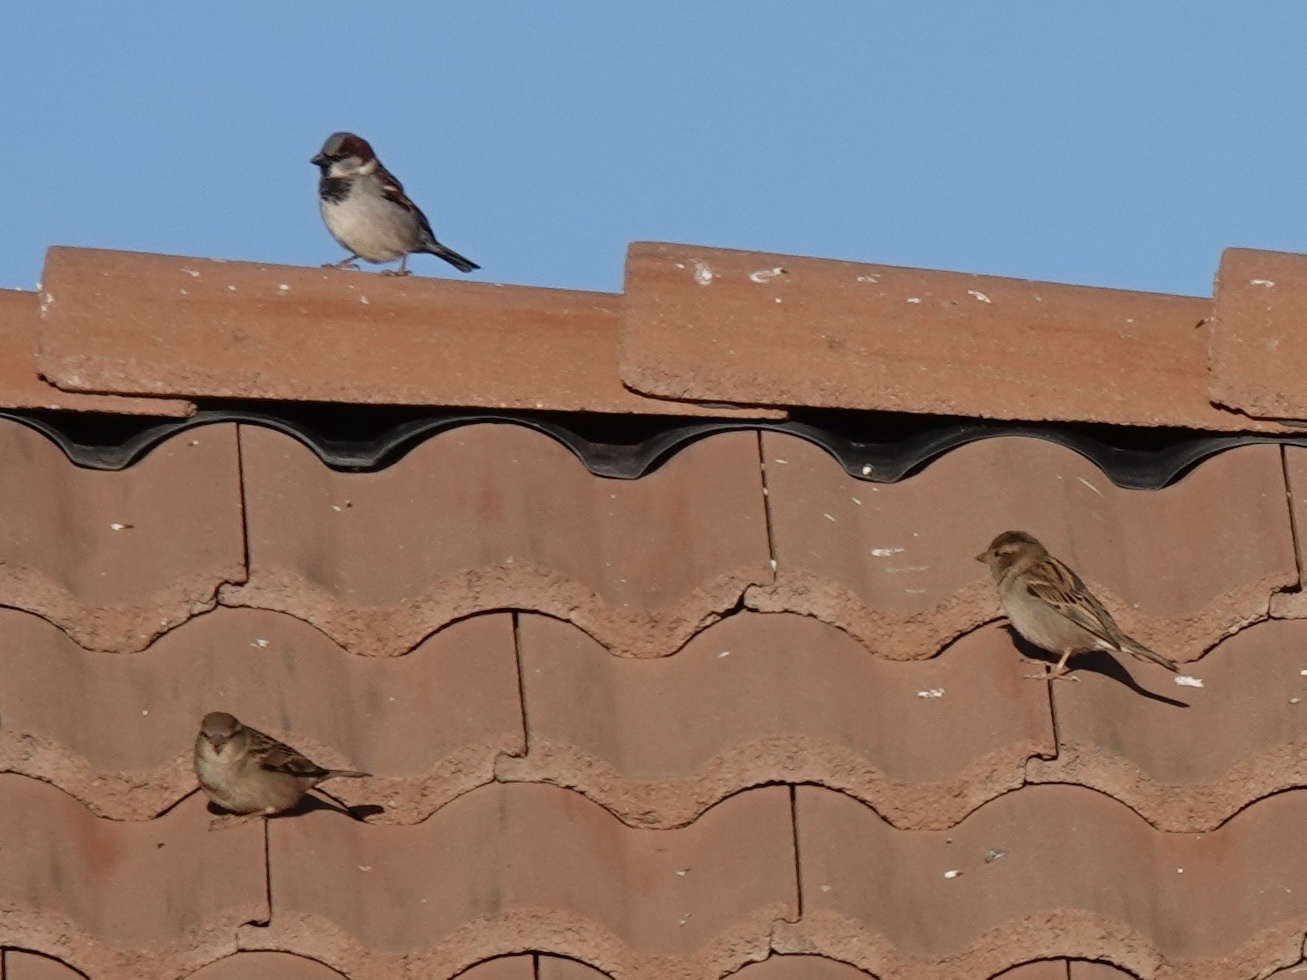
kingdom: Animalia
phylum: Chordata
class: Aves
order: Passeriformes
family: Passeridae
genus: Passer
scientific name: Passer domesticus
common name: House sparrow
